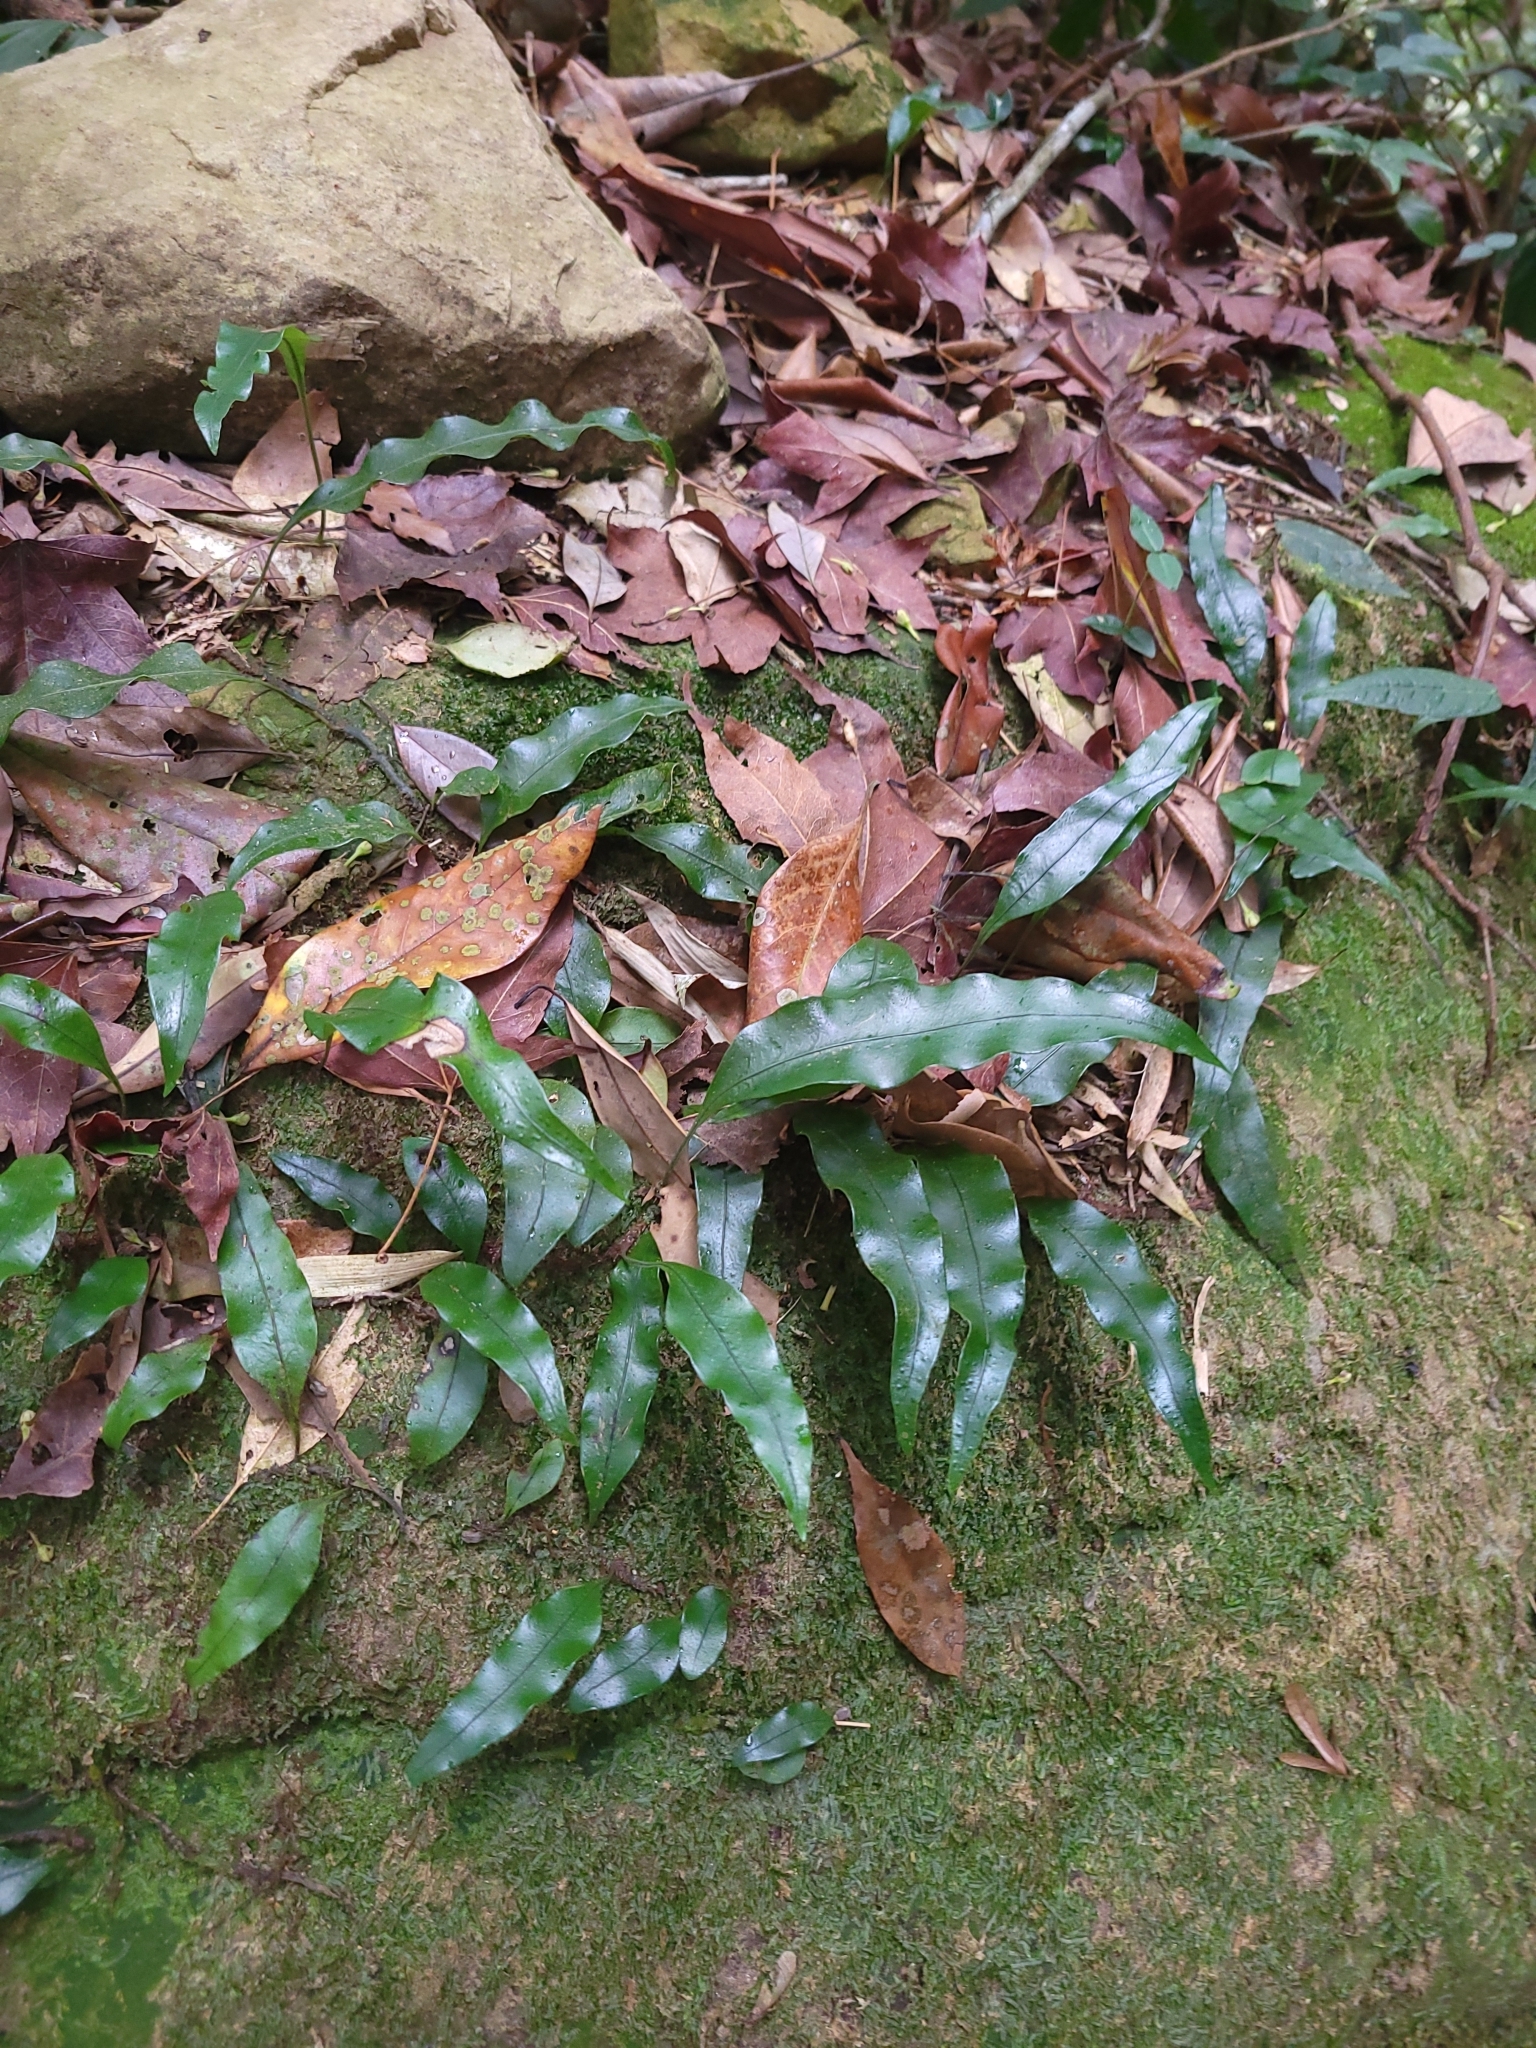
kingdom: Plantae
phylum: Tracheophyta
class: Polypodiopsida
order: Polypodiales
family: Polypodiaceae
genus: Lepisorus
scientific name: Lepisorus superficialis
